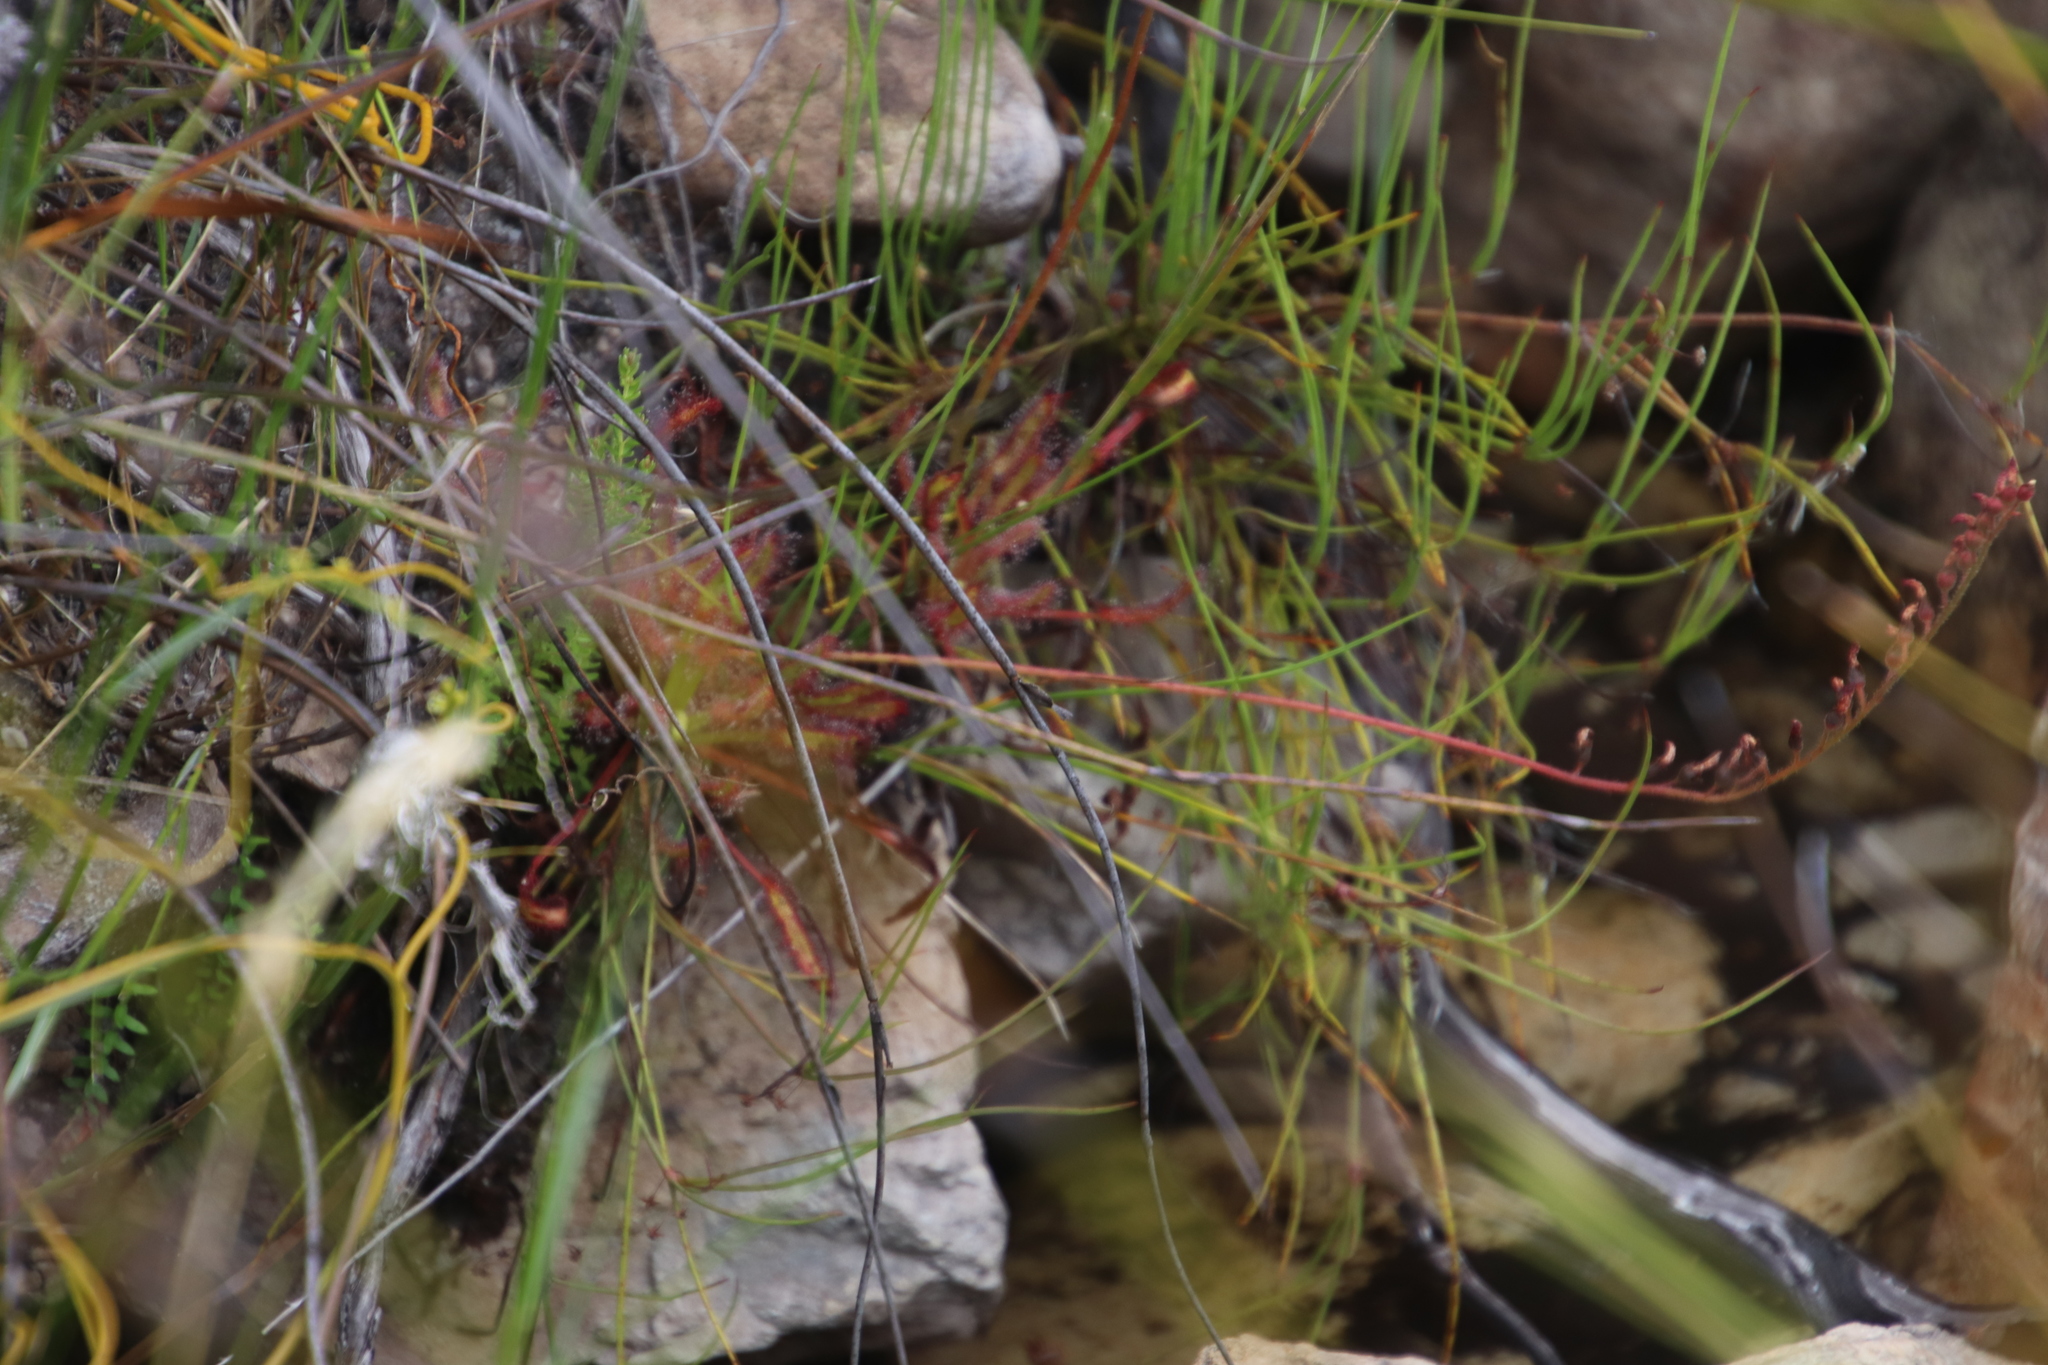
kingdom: Plantae
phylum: Tracheophyta
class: Magnoliopsida
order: Caryophyllales
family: Droseraceae
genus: Drosera
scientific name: Drosera capensis
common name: Cape sundew
